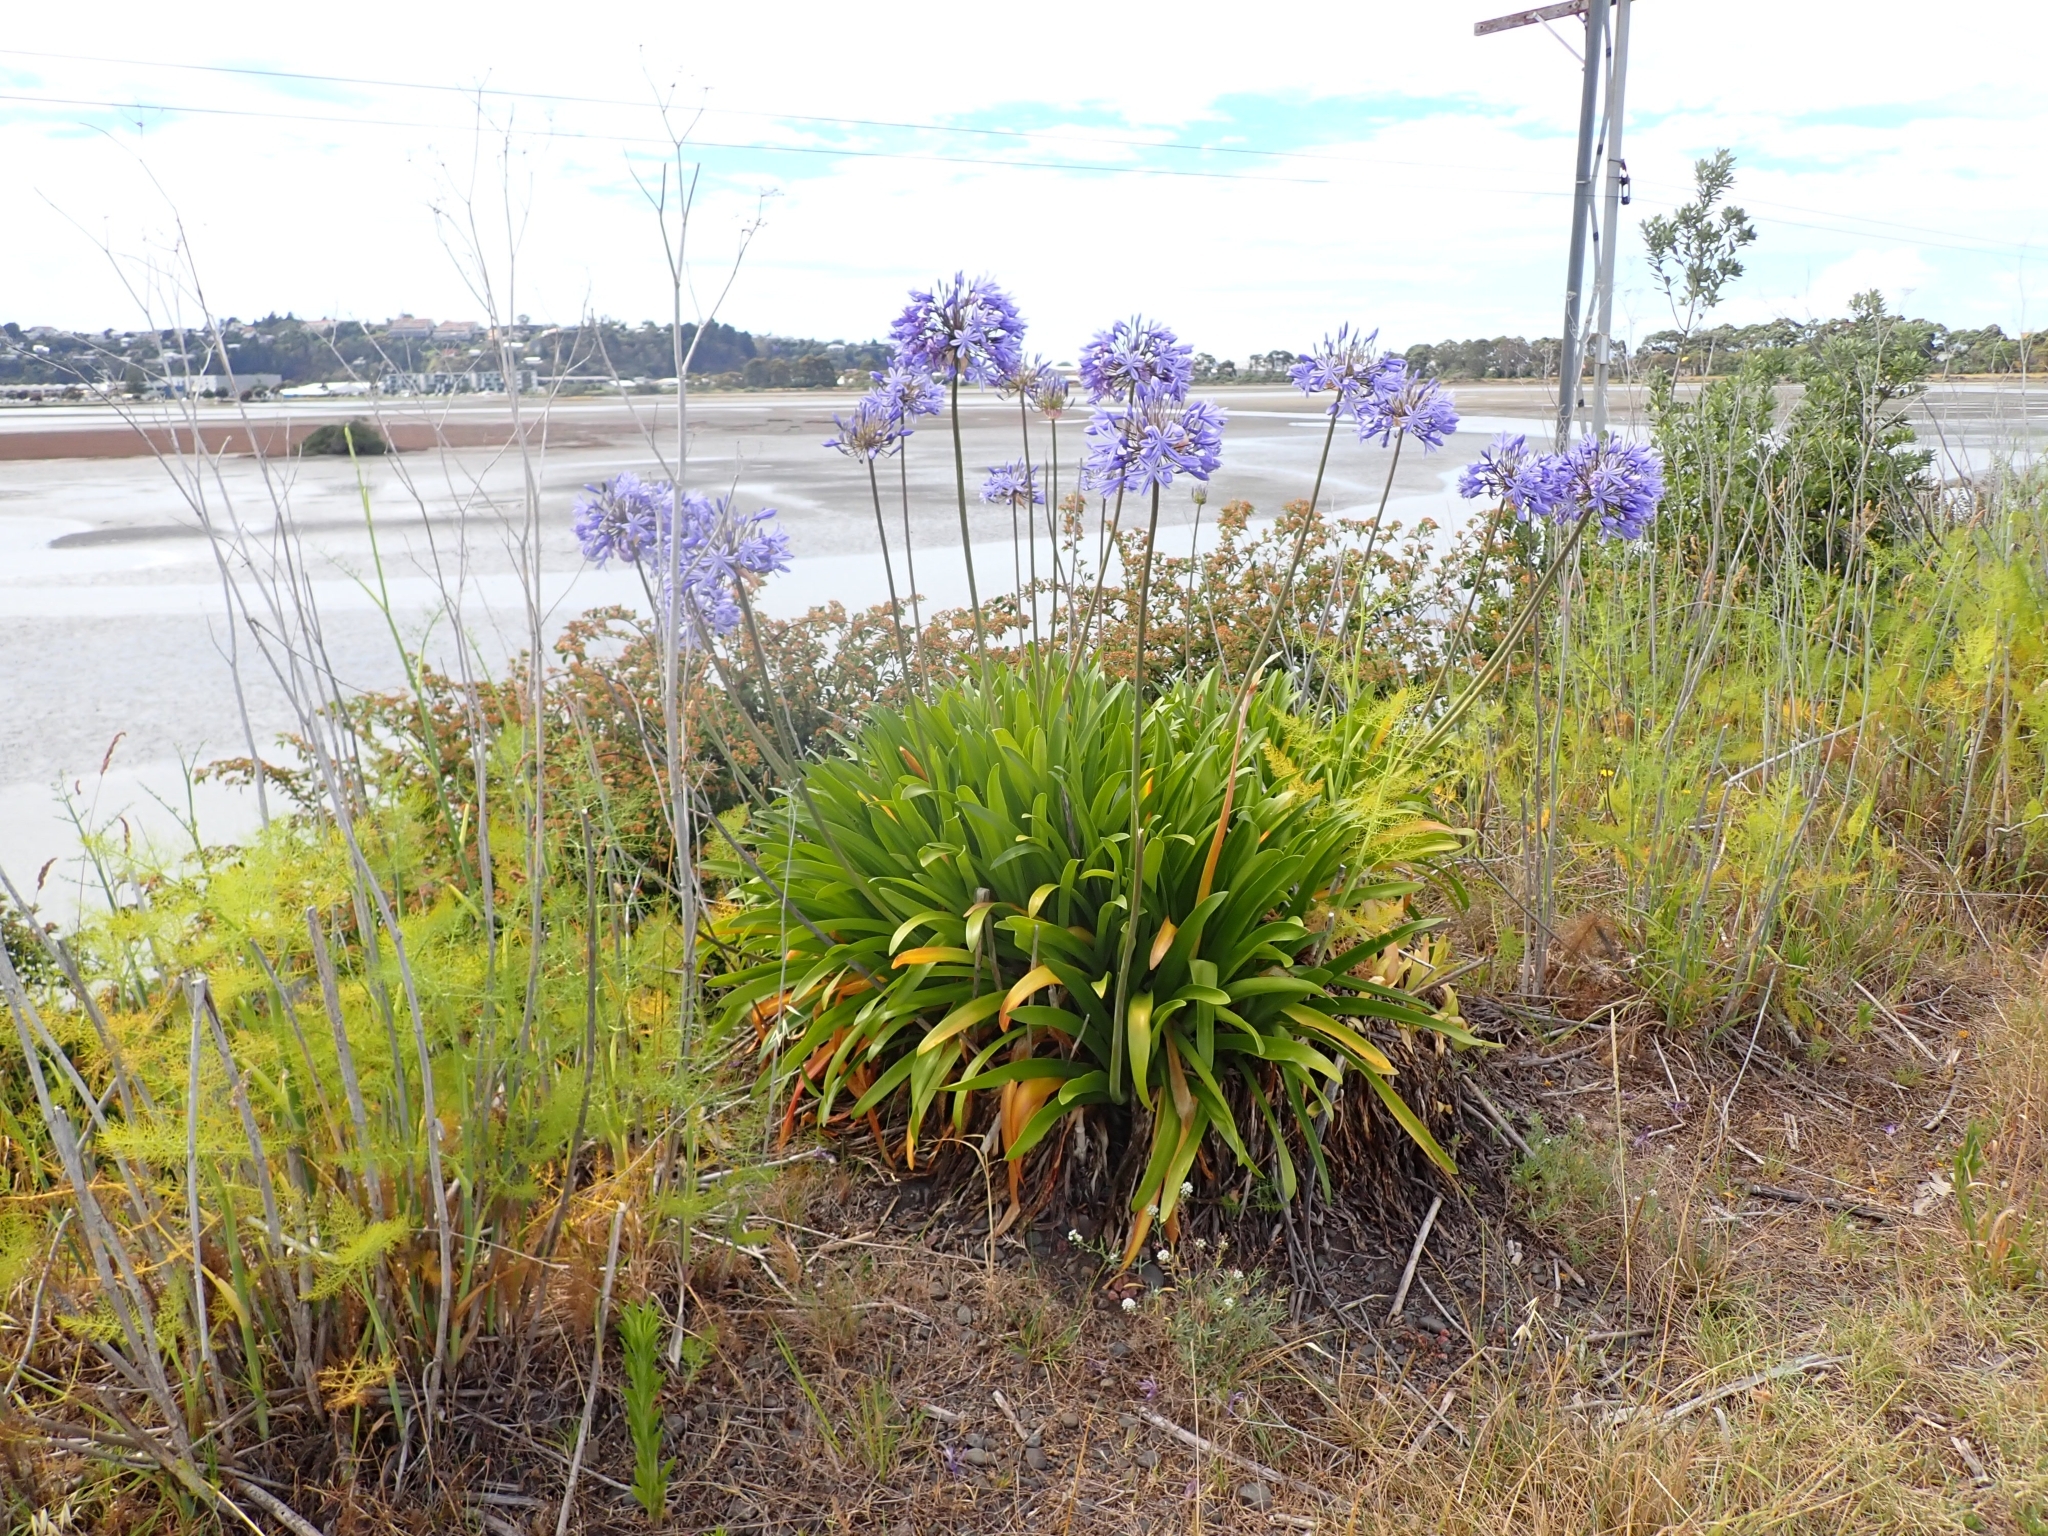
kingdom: Plantae
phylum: Tracheophyta
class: Liliopsida
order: Asparagales
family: Amaryllidaceae
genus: Agapanthus
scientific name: Agapanthus praecox
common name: African-lily
